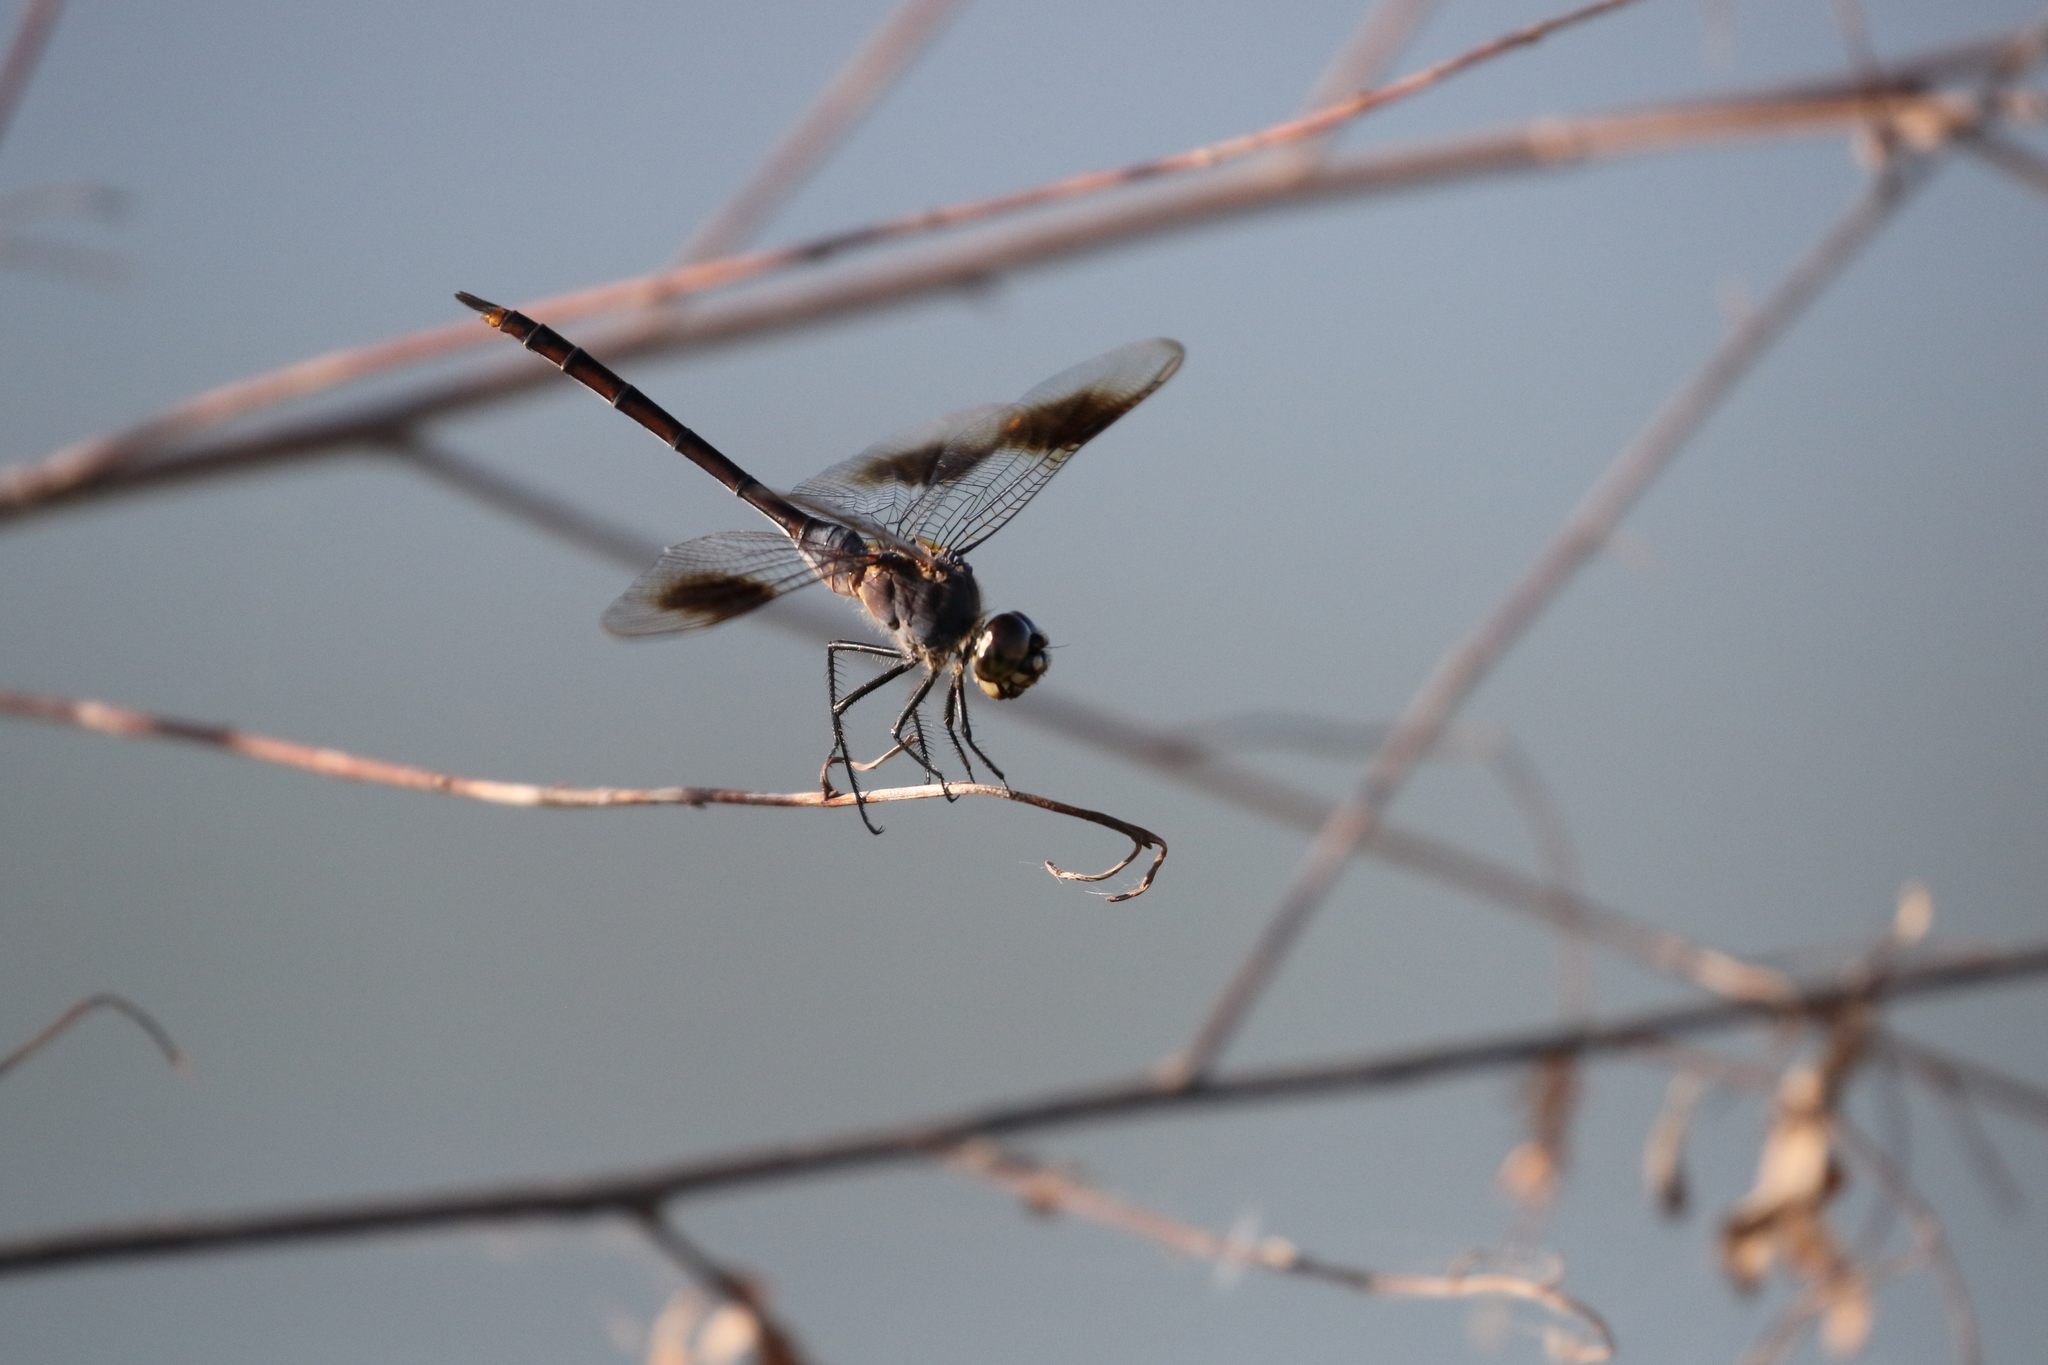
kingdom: Animalia
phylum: Arthropoda
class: Insecta
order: Odonata
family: Libellulidae
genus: Brachymesia
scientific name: Brachymesia gravida
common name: Four-spotted pennant
